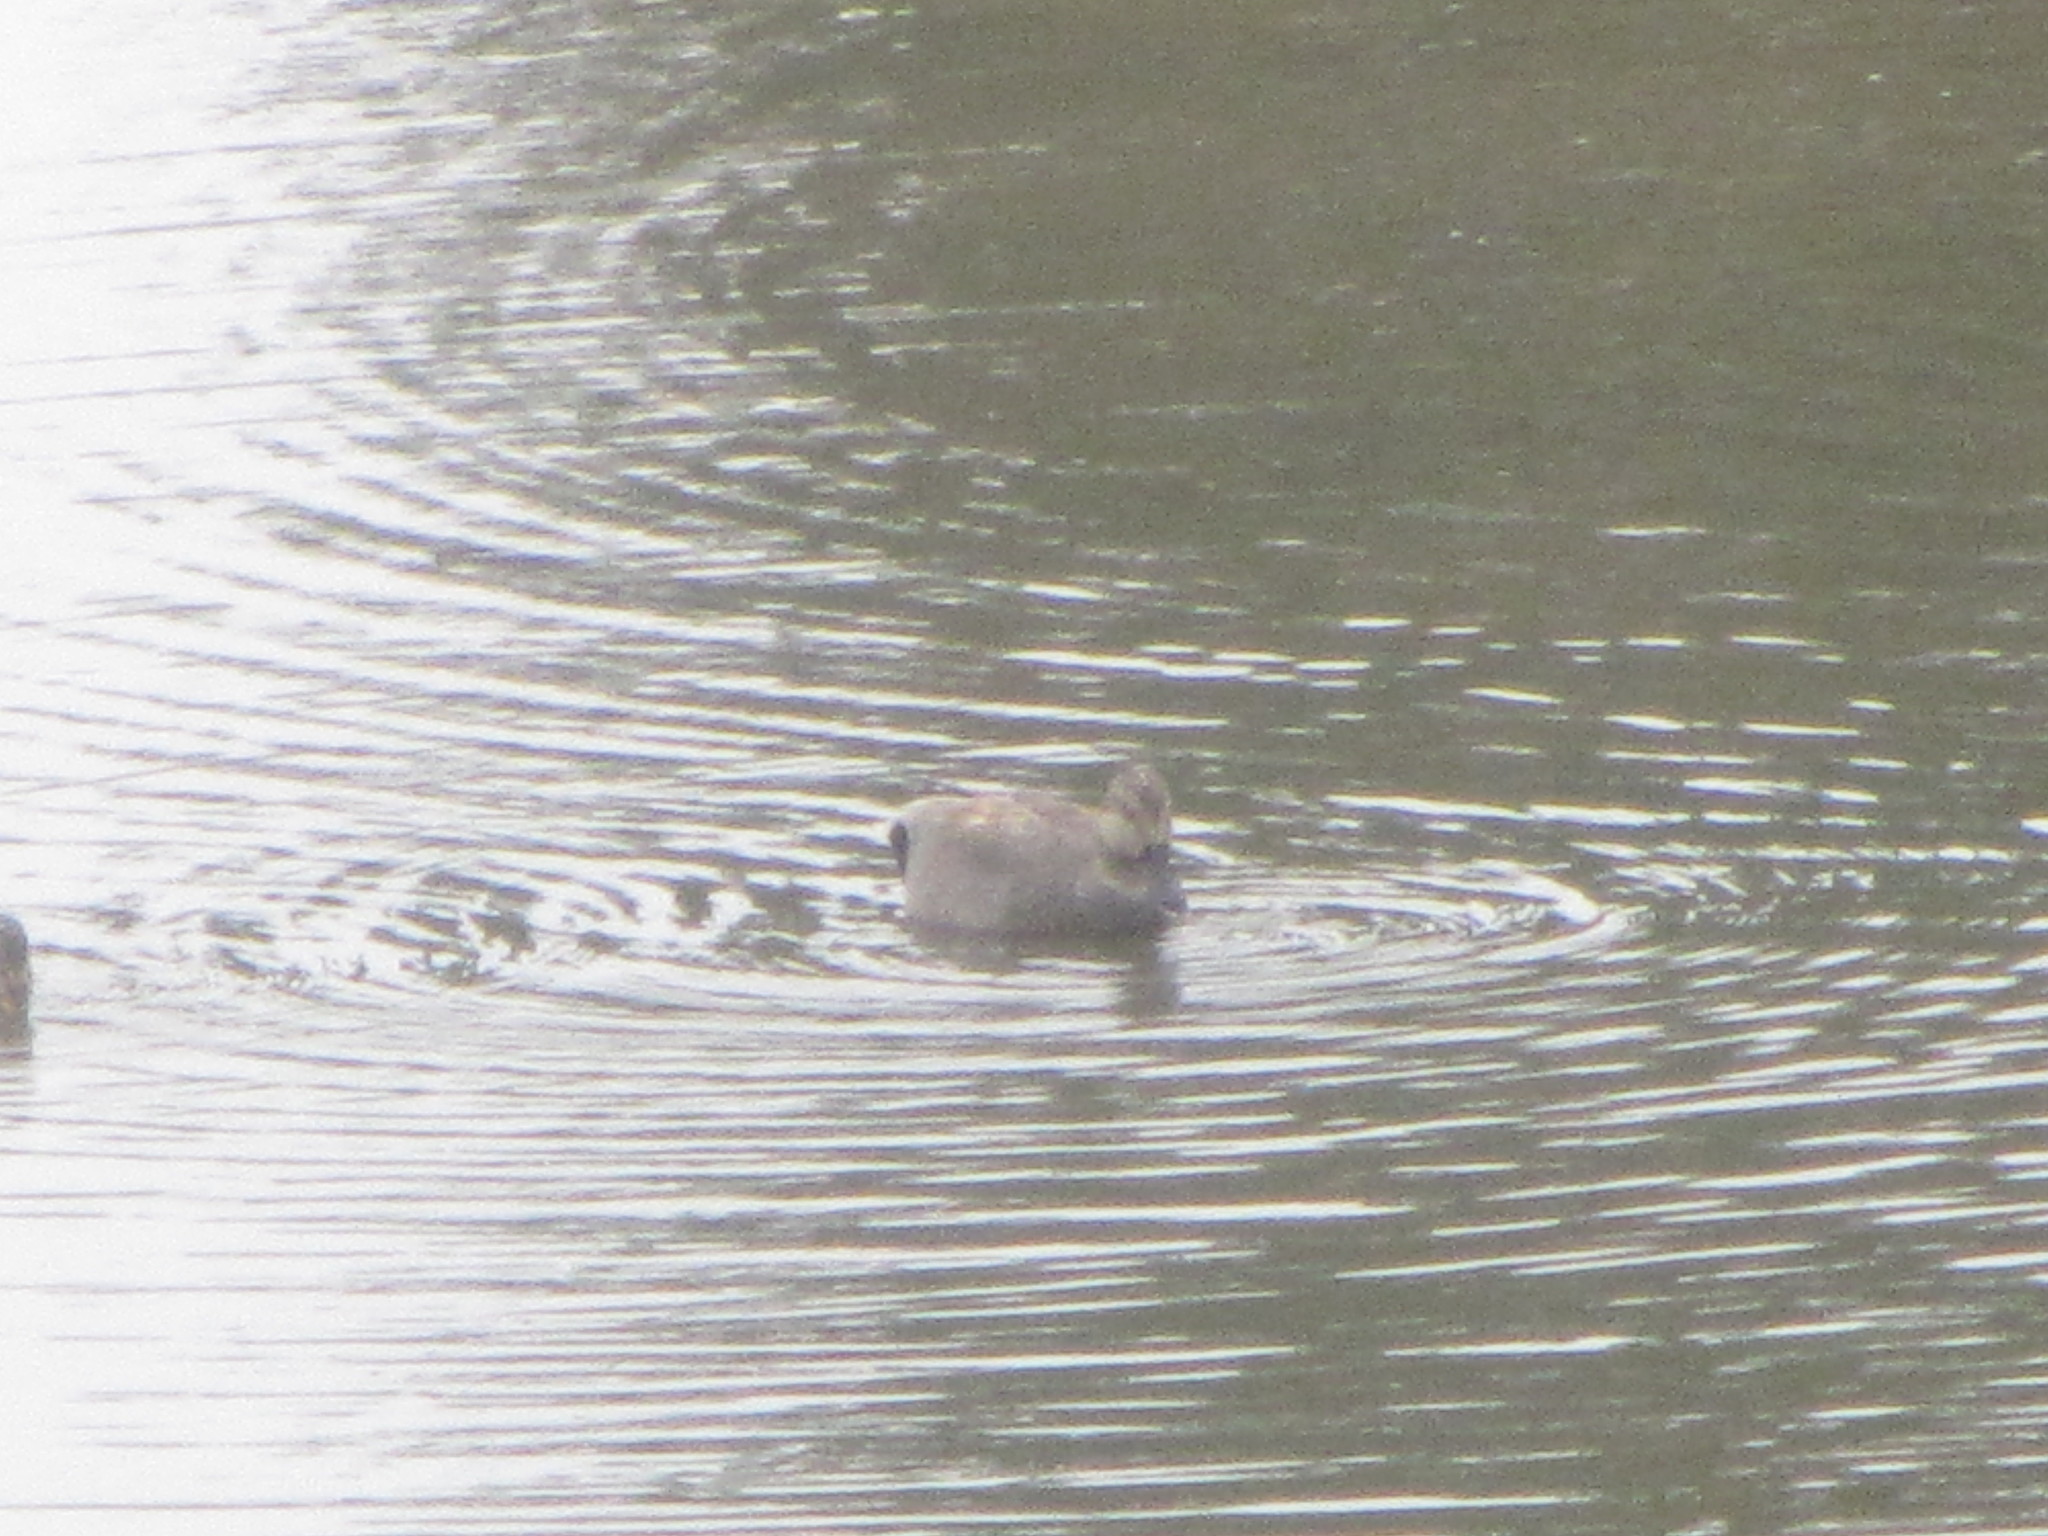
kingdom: Animalia
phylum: Chordata
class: Aves
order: Anseriformes
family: Anatidae
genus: Mareca
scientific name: Mareca strepera
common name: Gadwall
